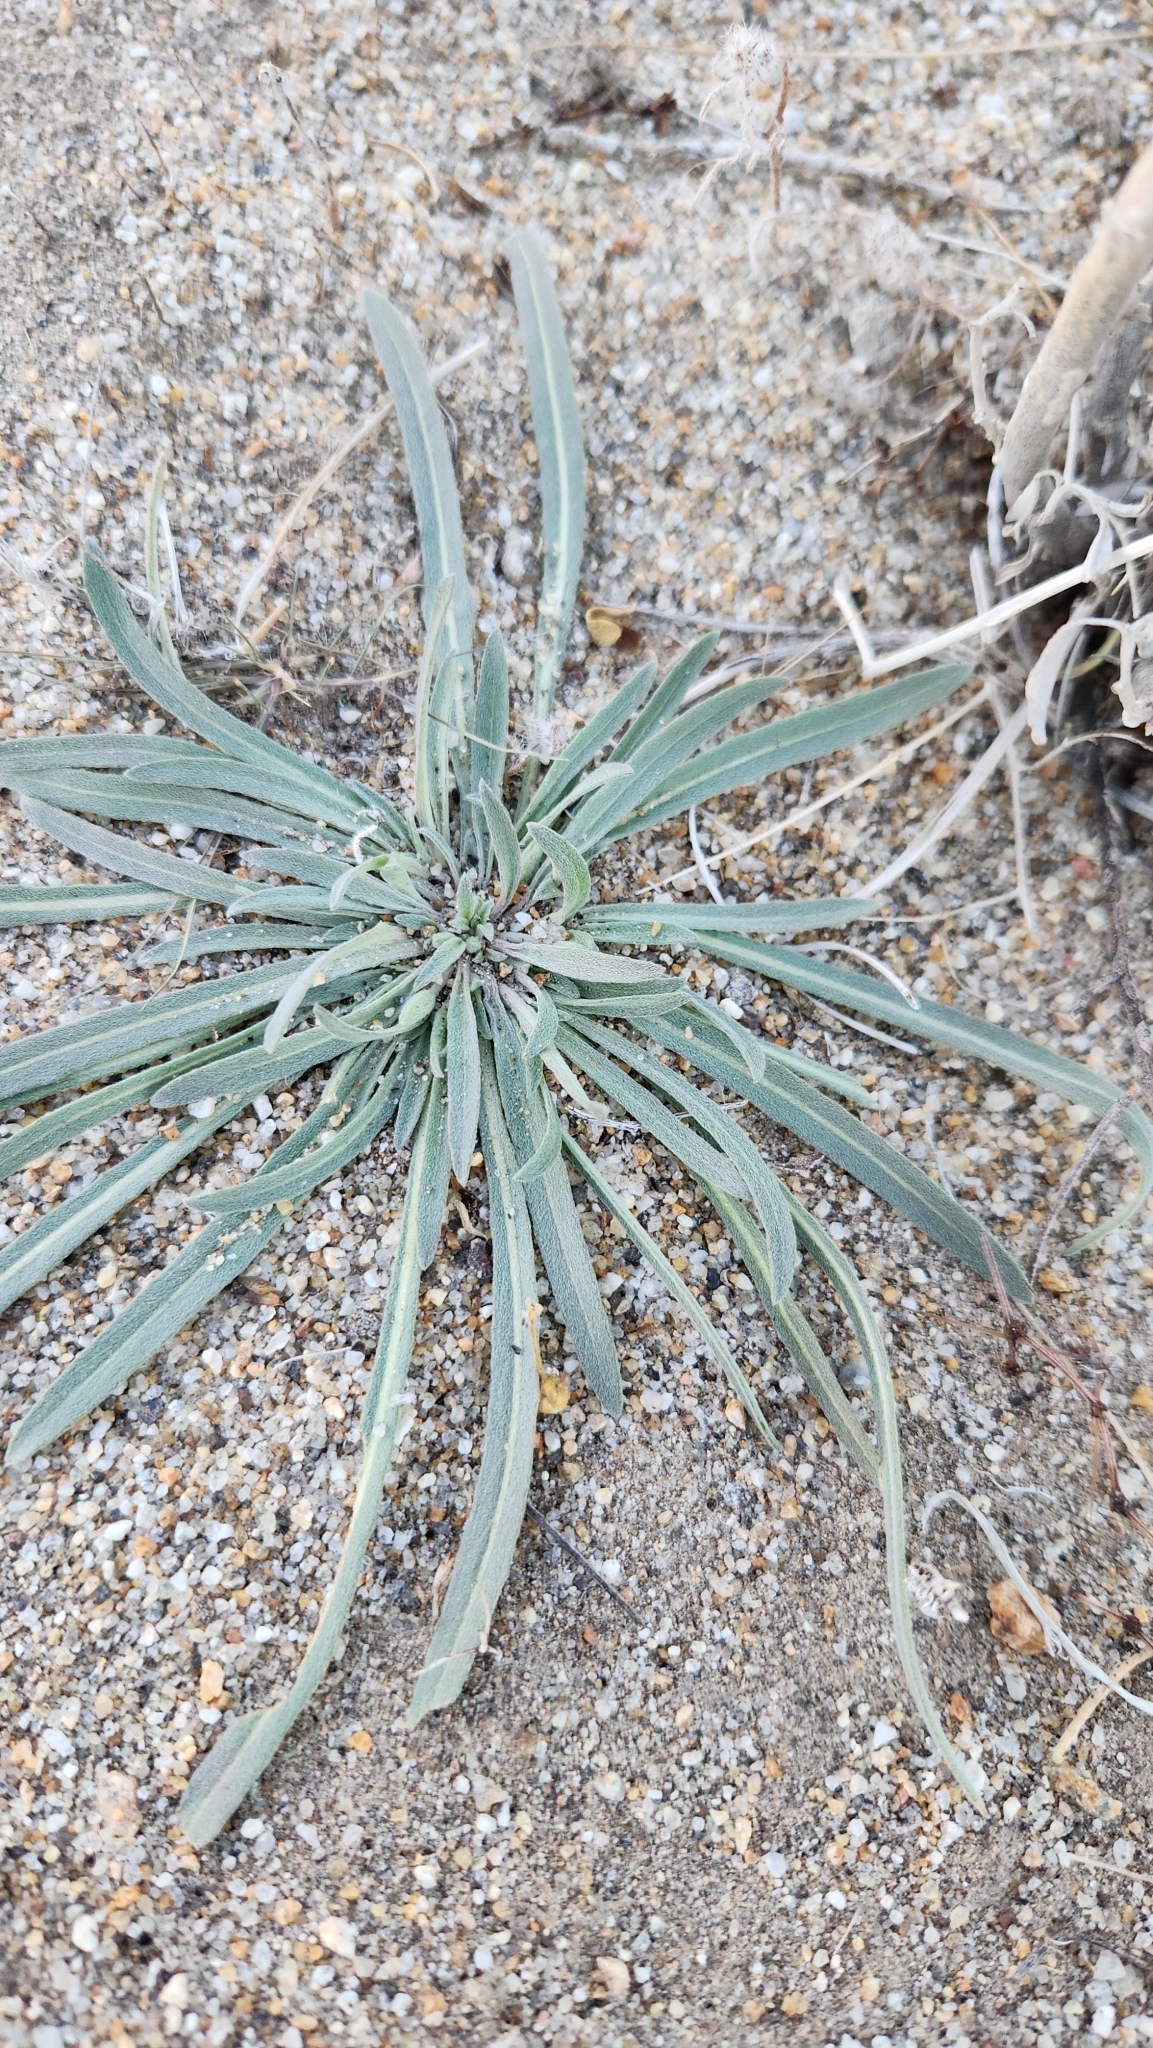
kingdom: Plantae
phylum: Tracheophyta
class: Magnoliopsida
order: Myrtales
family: Onagraceae
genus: Camissoniopsis
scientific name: Camissoniopsis pallida
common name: Paleyellow suncup
